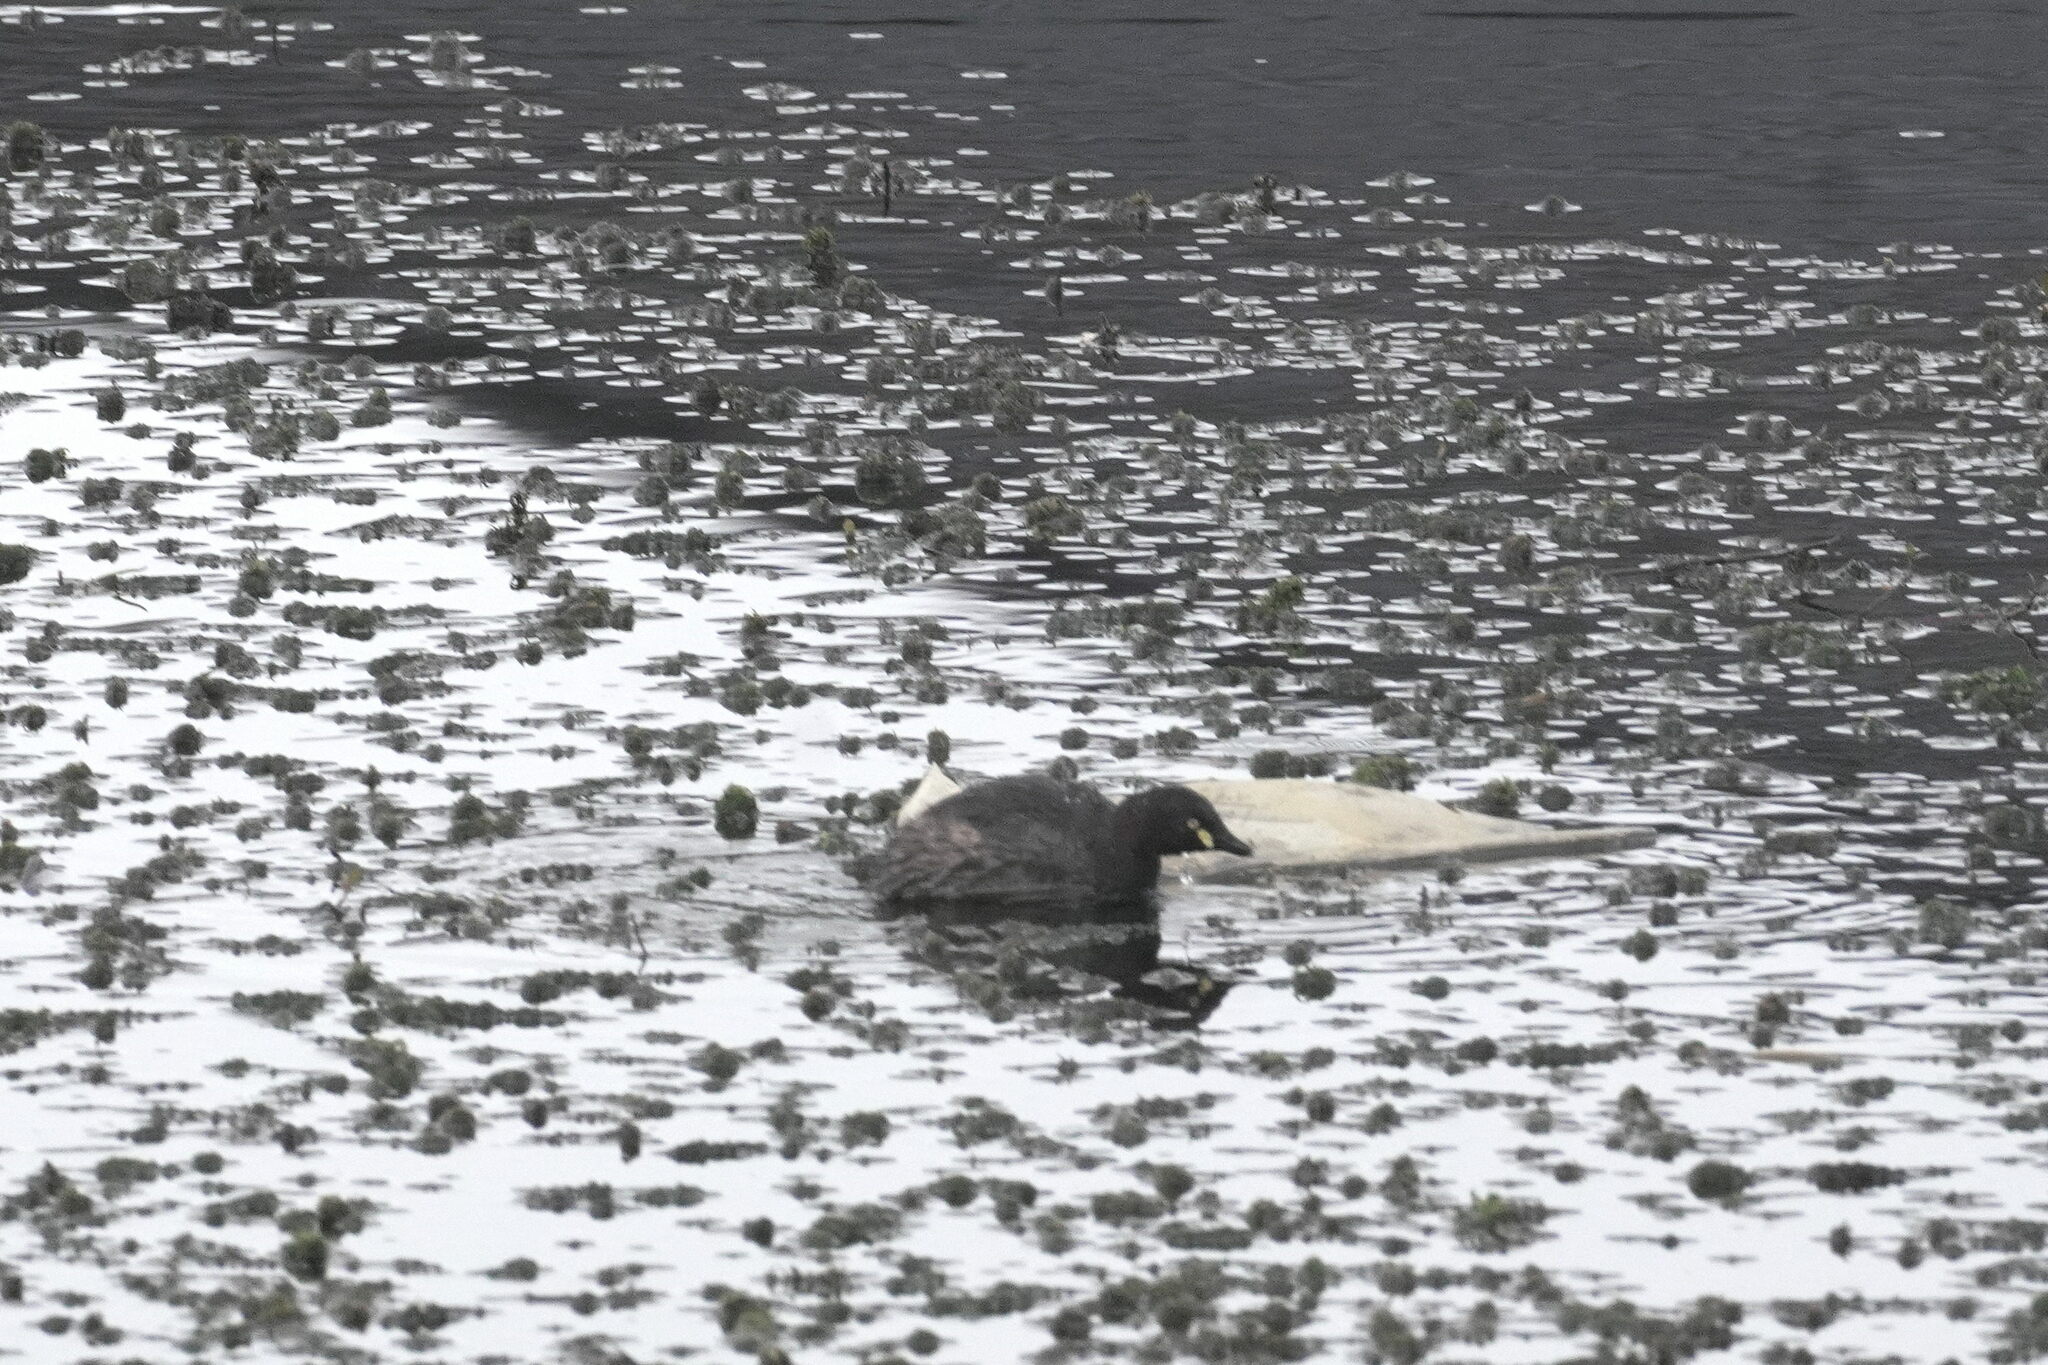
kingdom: Animalia
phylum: Chordata
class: Aves
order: Podicipediformes
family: Podicipedidae
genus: Tachybaptus
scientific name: Tachybaptus novaehollandiae
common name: Australasian grebe
